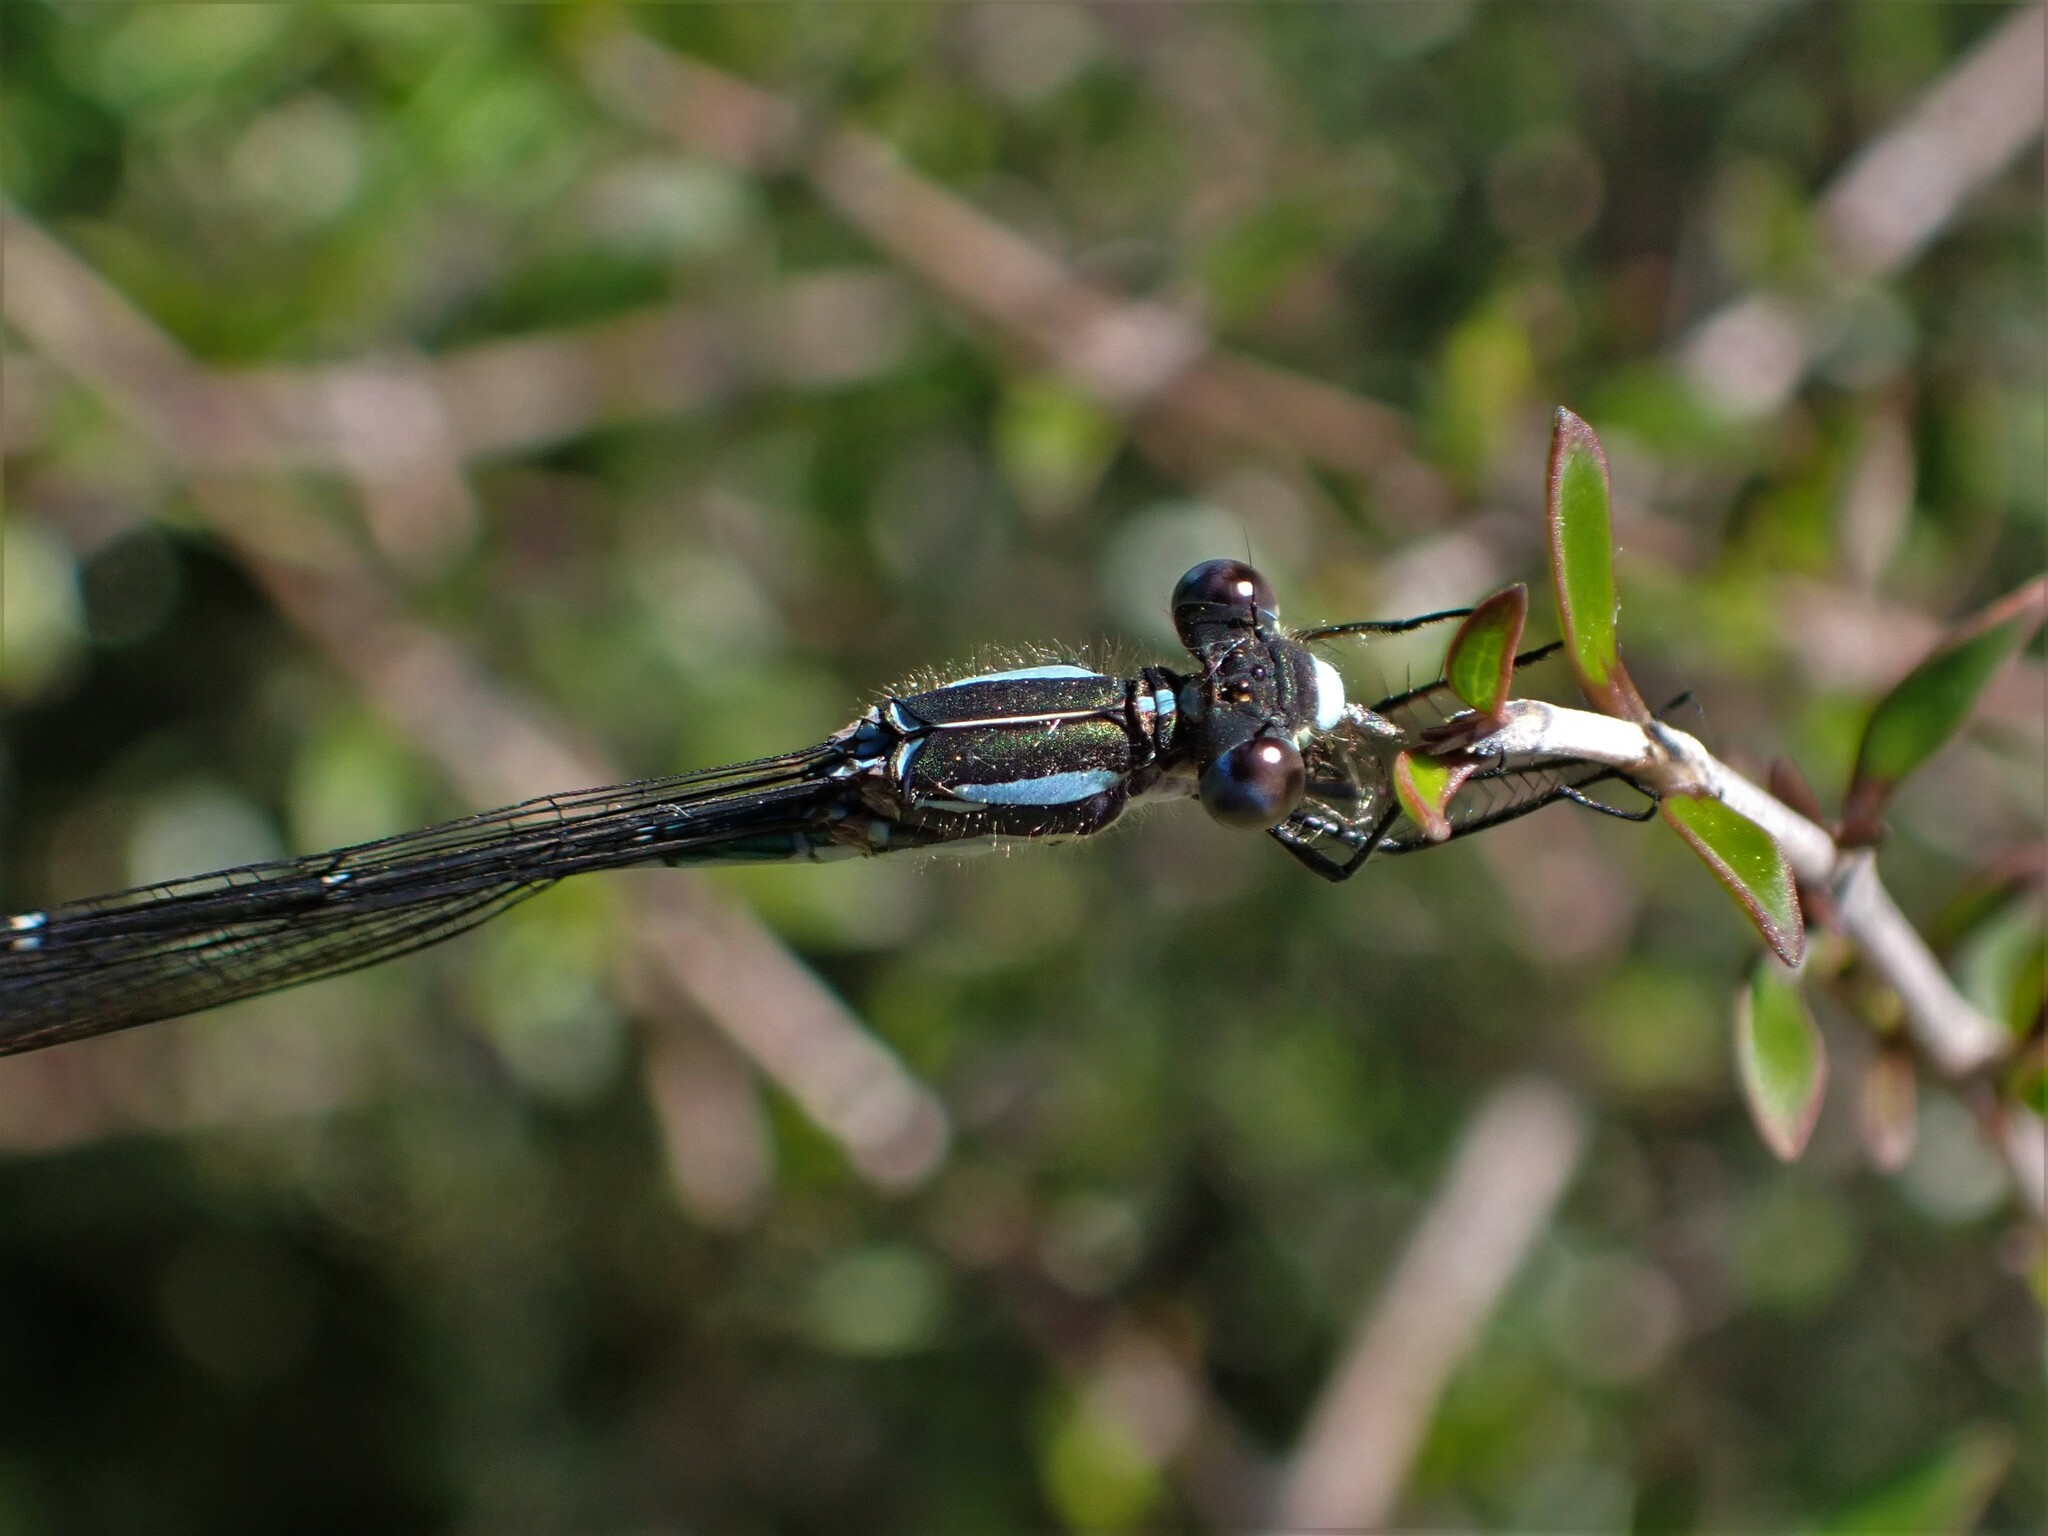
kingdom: Animalia
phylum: Arthropoda
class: Insecta
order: Odonata
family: Lestidae
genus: Austrolestes
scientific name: Austrolestes colensonis
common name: Blue damselfly
